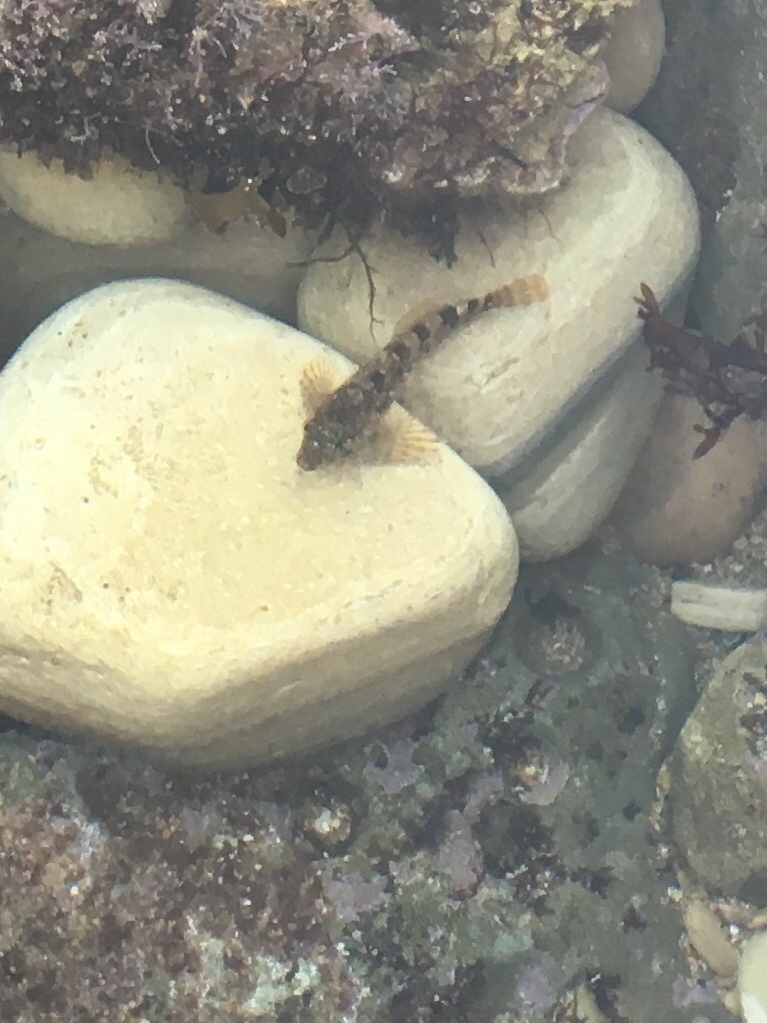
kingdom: Animalia
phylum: Chordata
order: Scorpaeniformes
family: Cottidae
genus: Clinocottus
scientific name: Clinocottus analis
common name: Woolly sculpin
